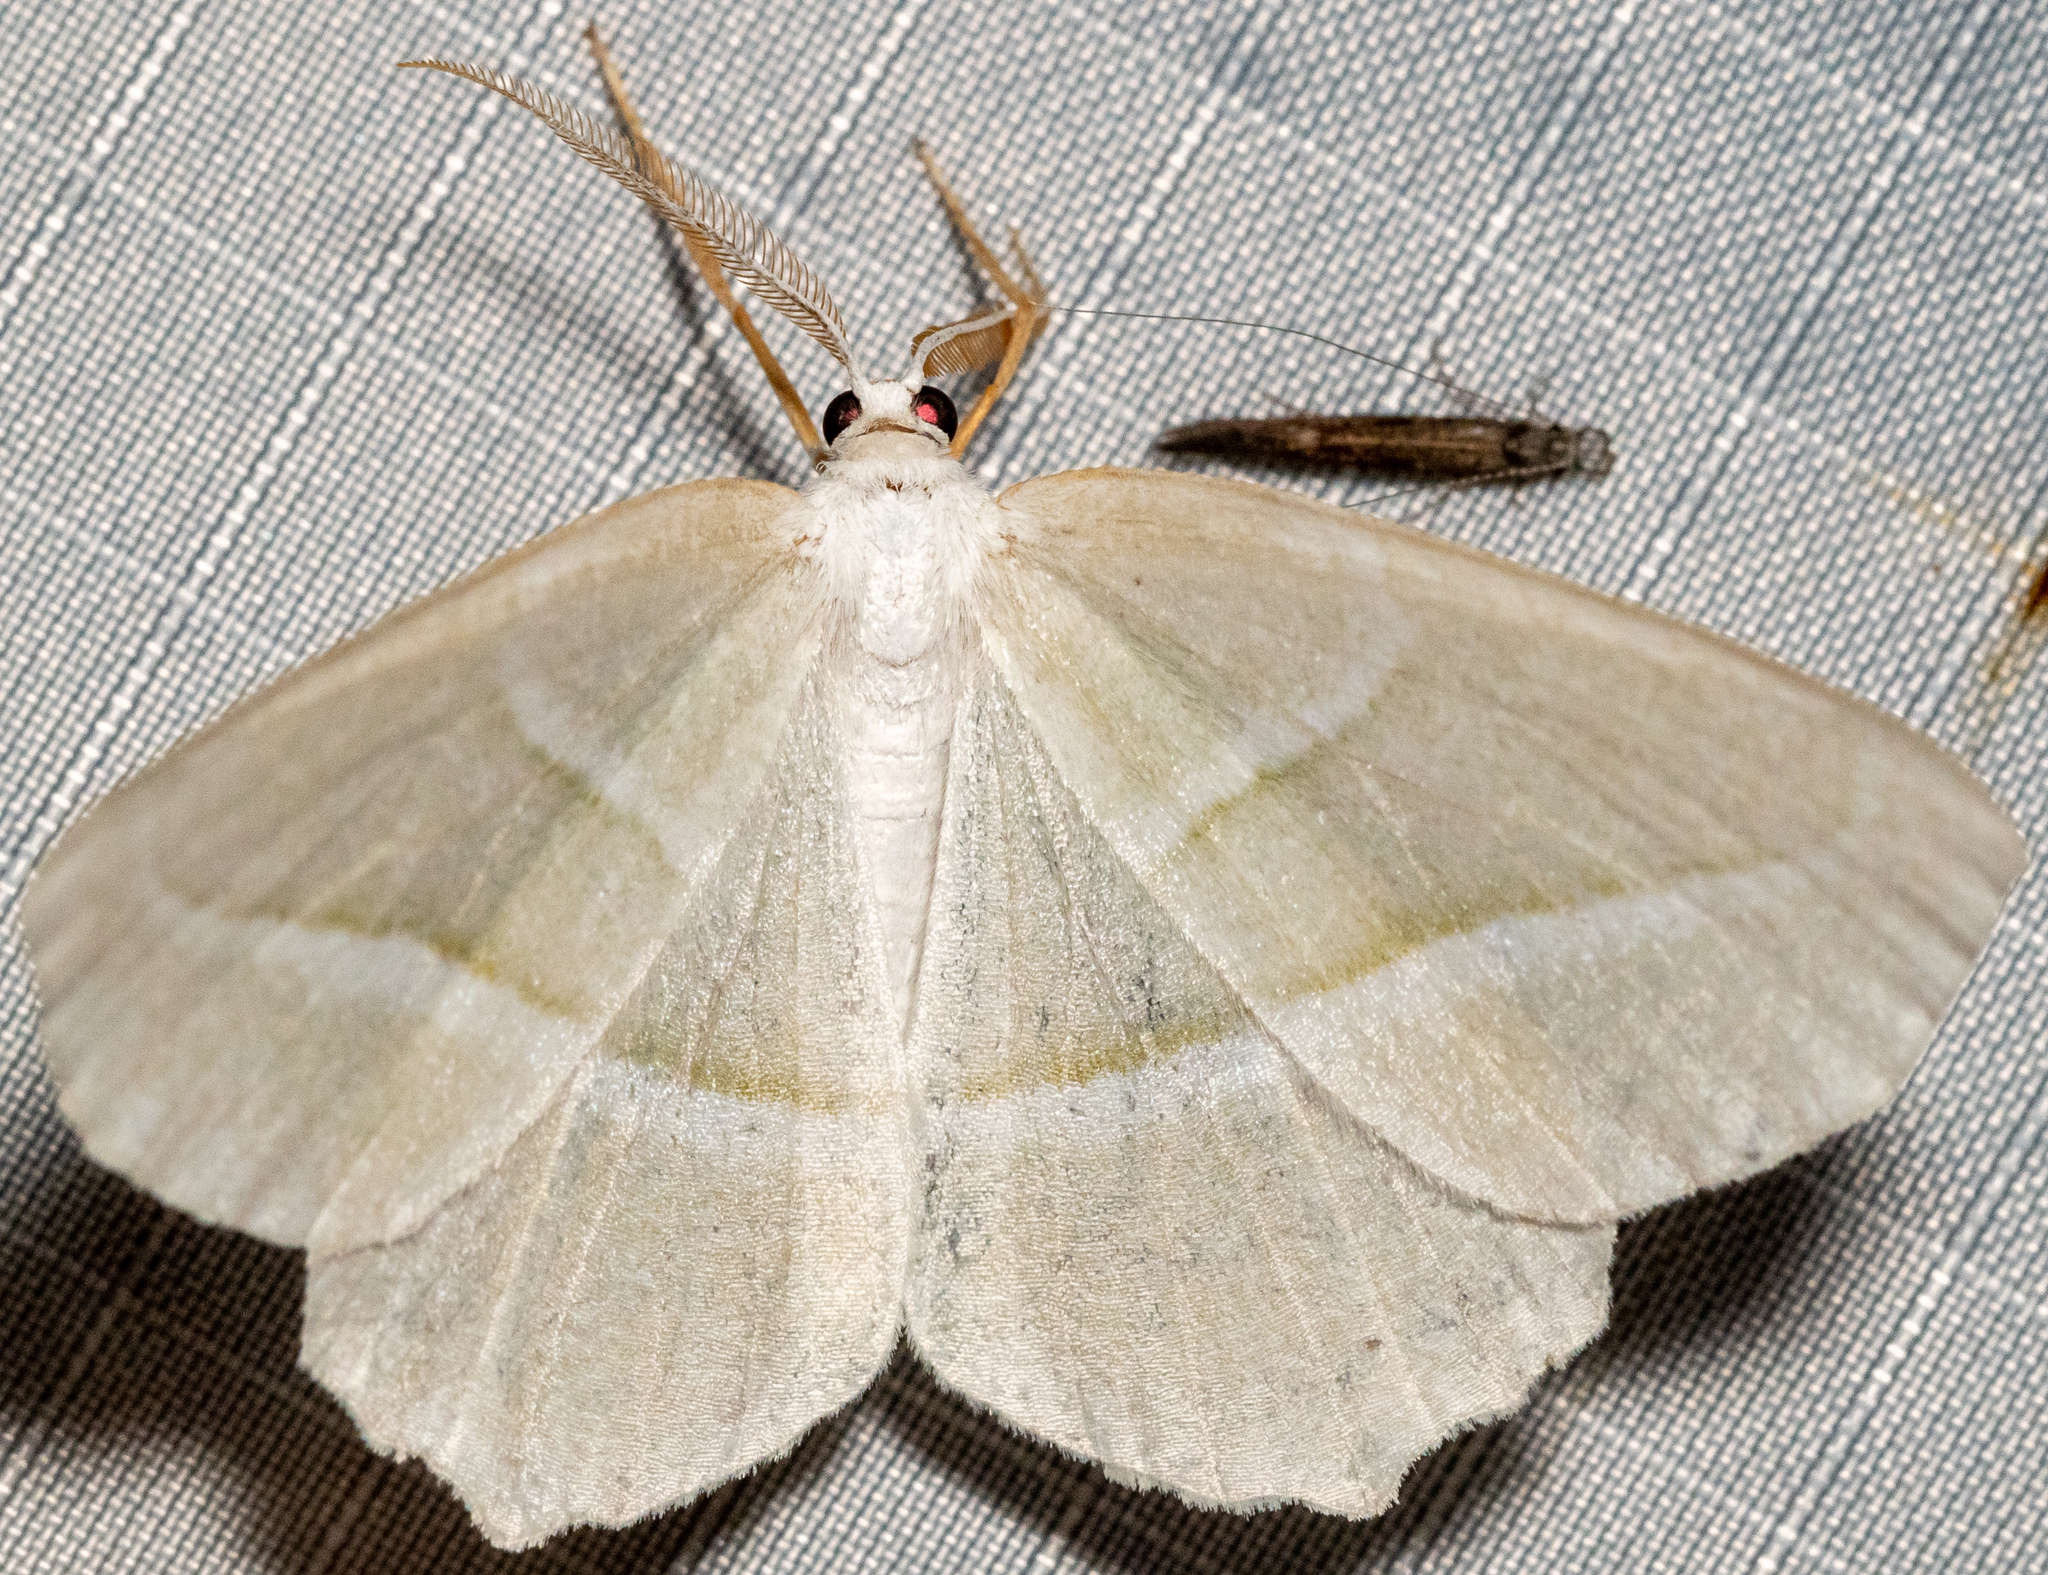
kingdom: Animalia
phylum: Arthropoda
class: Insecta
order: Lepidoptera
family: Geometridae
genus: Campaea
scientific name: Campaea perlata
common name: Fringed looper
